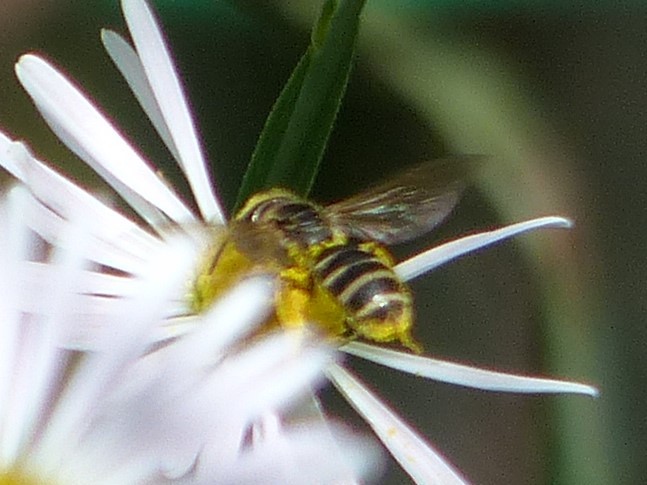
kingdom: Animalia
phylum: Arthropoda
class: Insecta
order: Hymenoptera
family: Halictidae
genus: Halictus
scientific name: Halictus ligatus
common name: Ligated furrow bee
